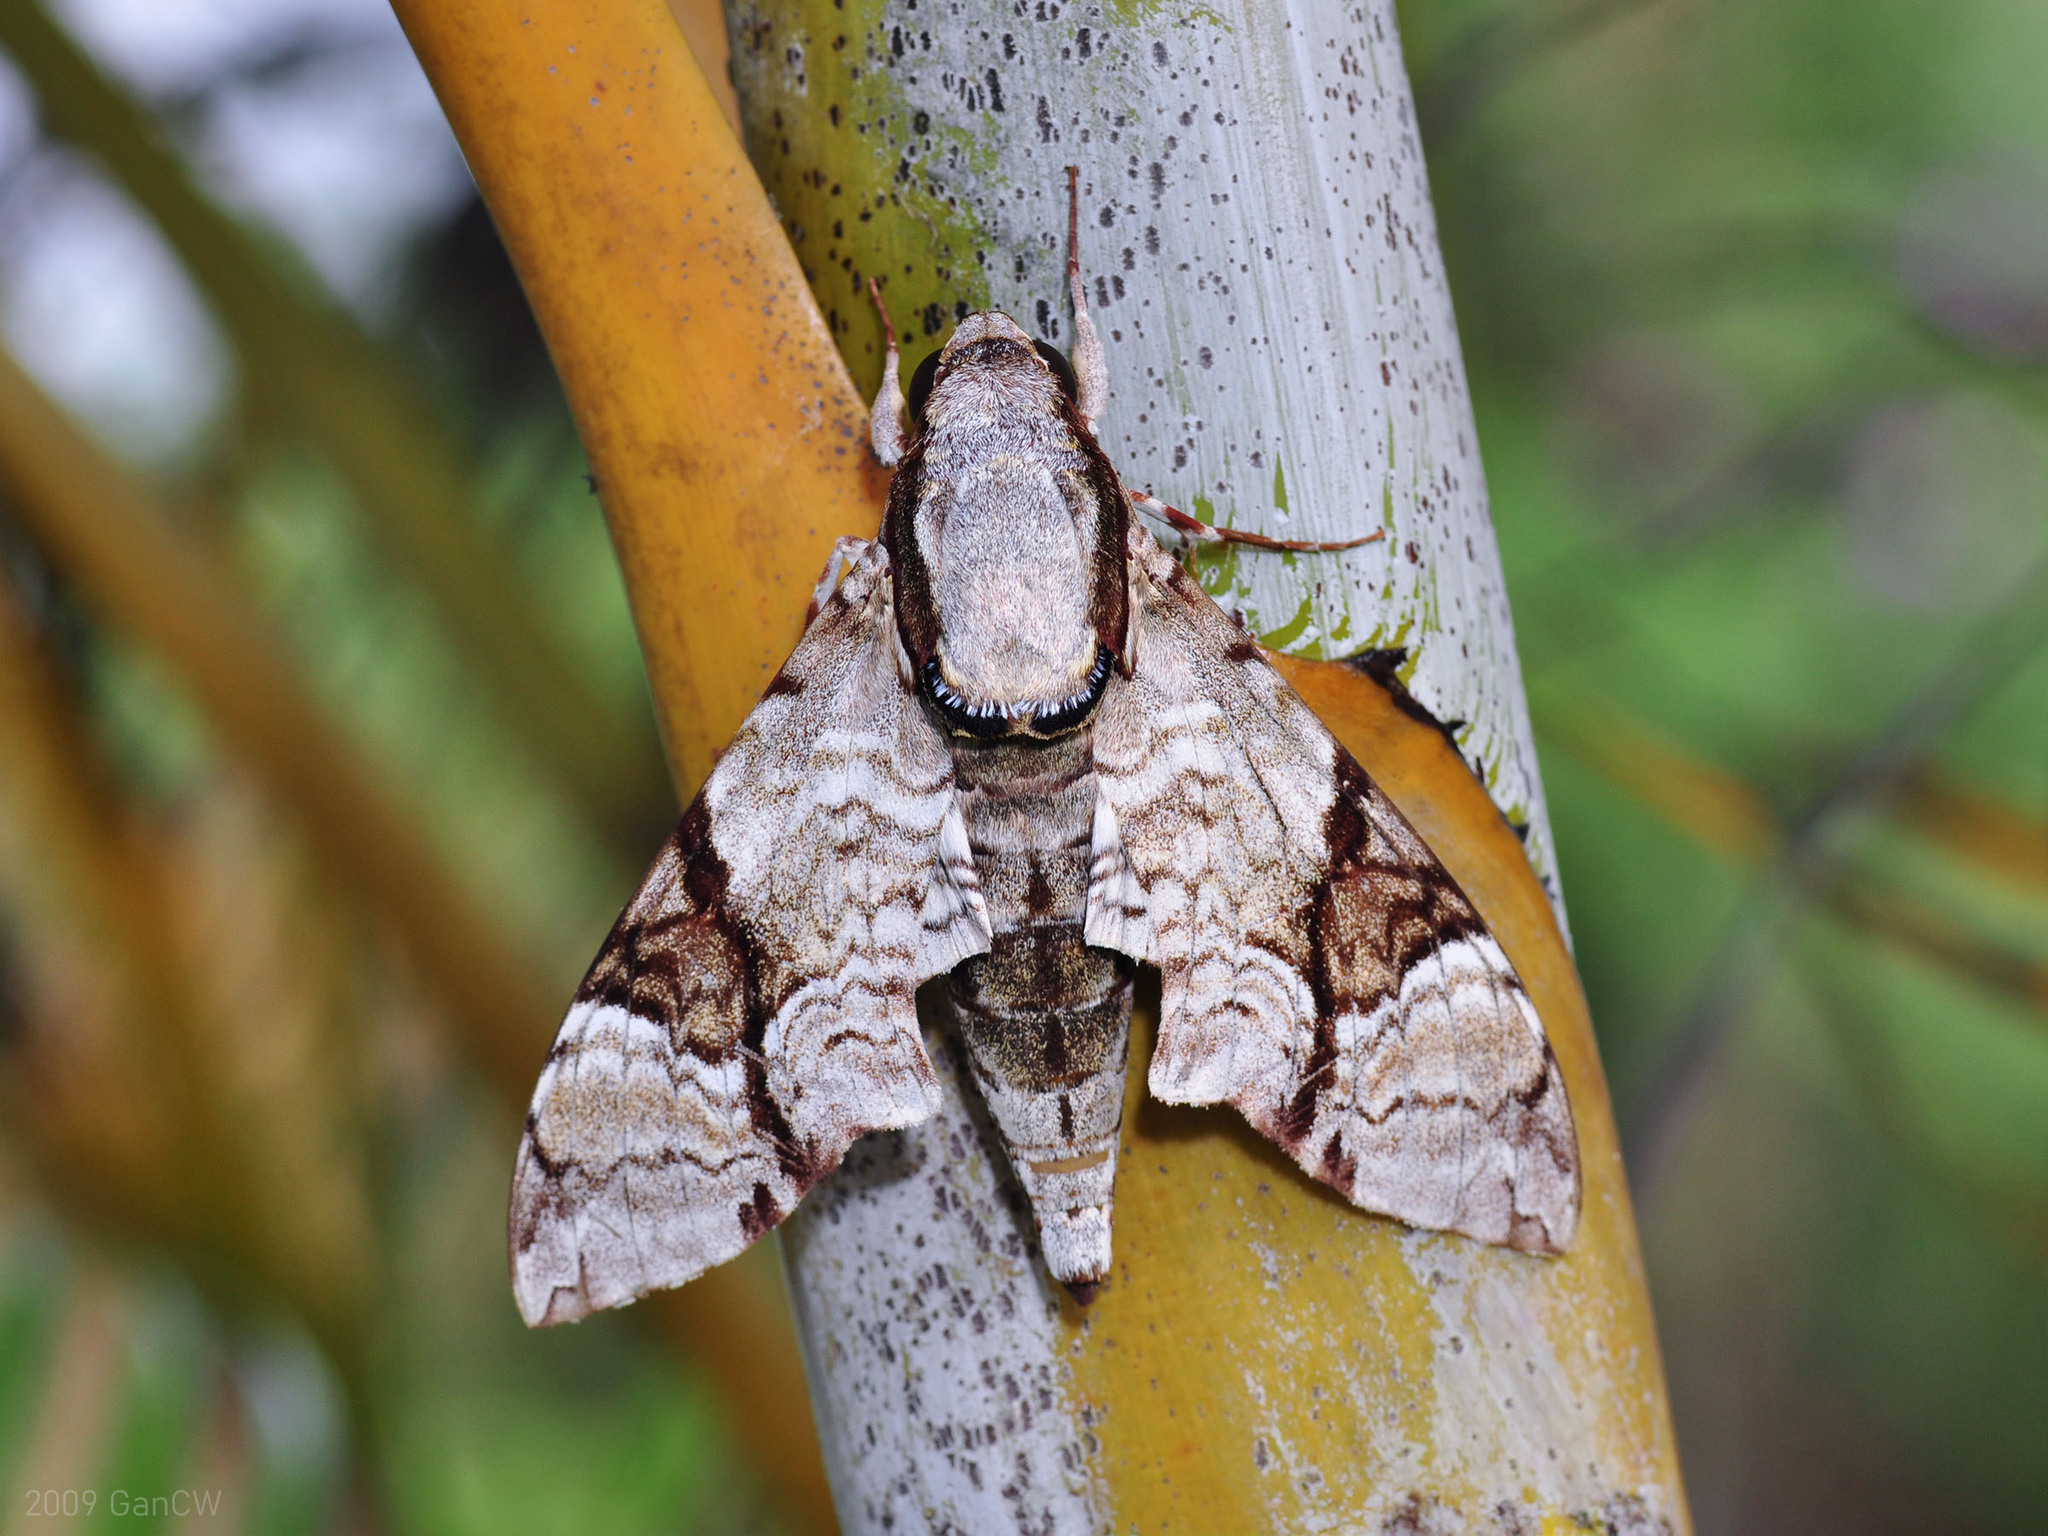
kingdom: Animalia
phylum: Arthropoda
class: Insecta
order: Lepidoptera
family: Sphingidae
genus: Megacorma
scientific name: Megacorma obliqua
